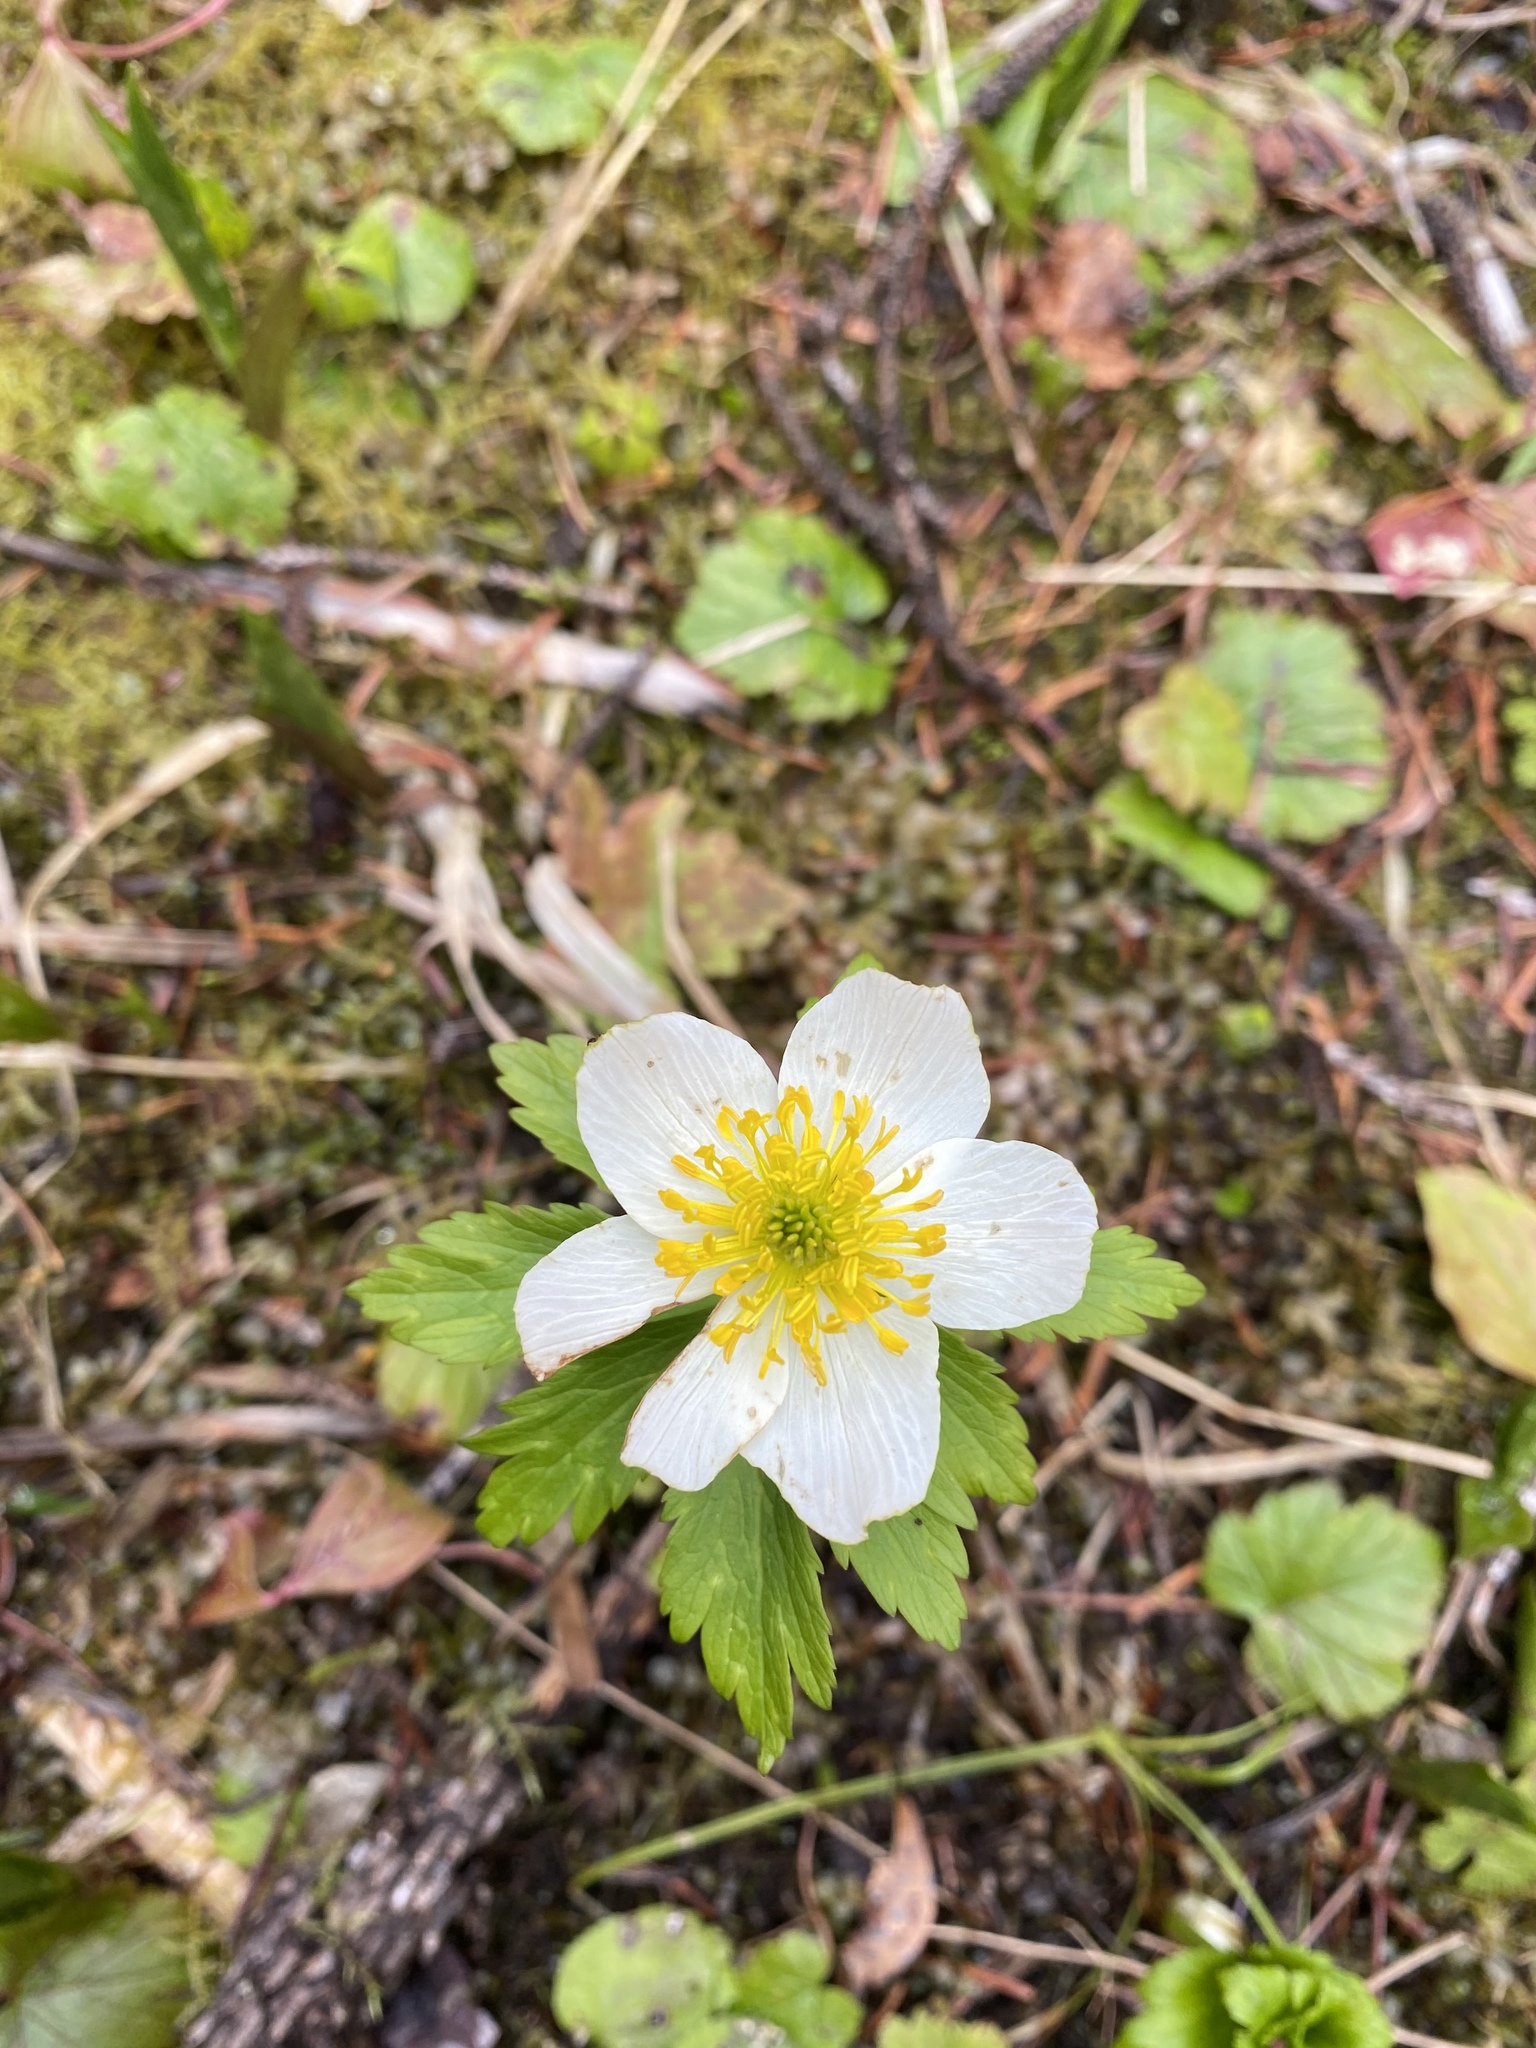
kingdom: Plantae
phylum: Tracheophyta
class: Magnoliopsida
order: Ranunculales
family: Ranunculaceae
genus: Trollius
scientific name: Trollius laxus
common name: American globeflower
